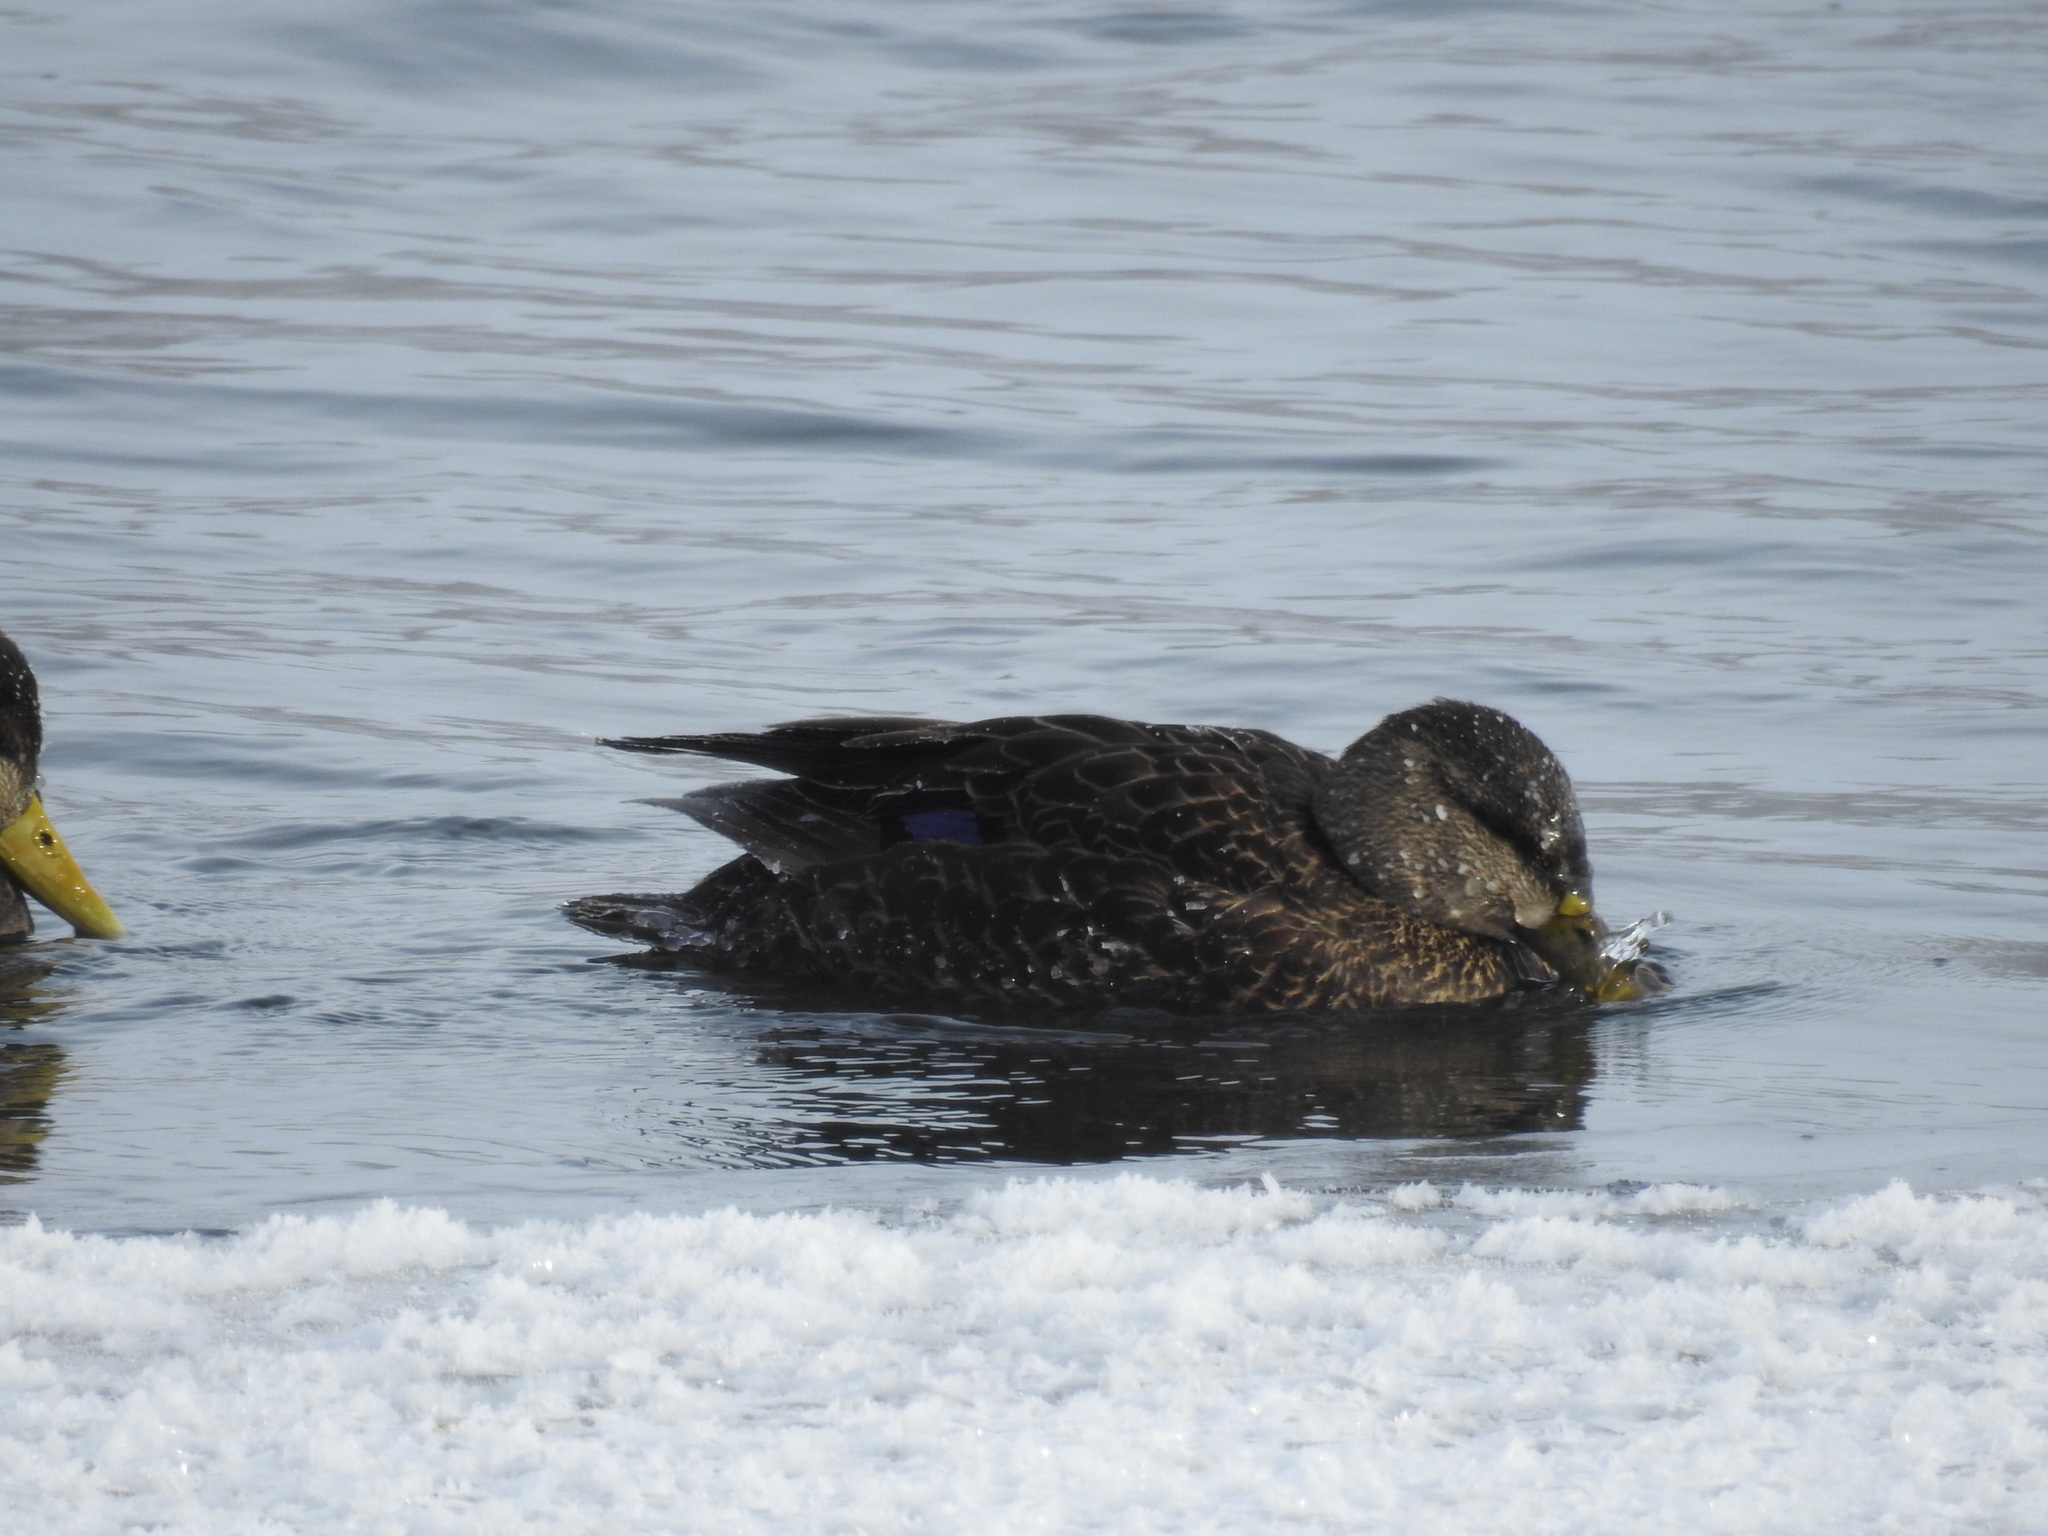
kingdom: Animalia
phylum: Chordata
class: Aves
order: Anseriformes
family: Anatidae
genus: Anas
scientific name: Anas rubripes
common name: American black duck
